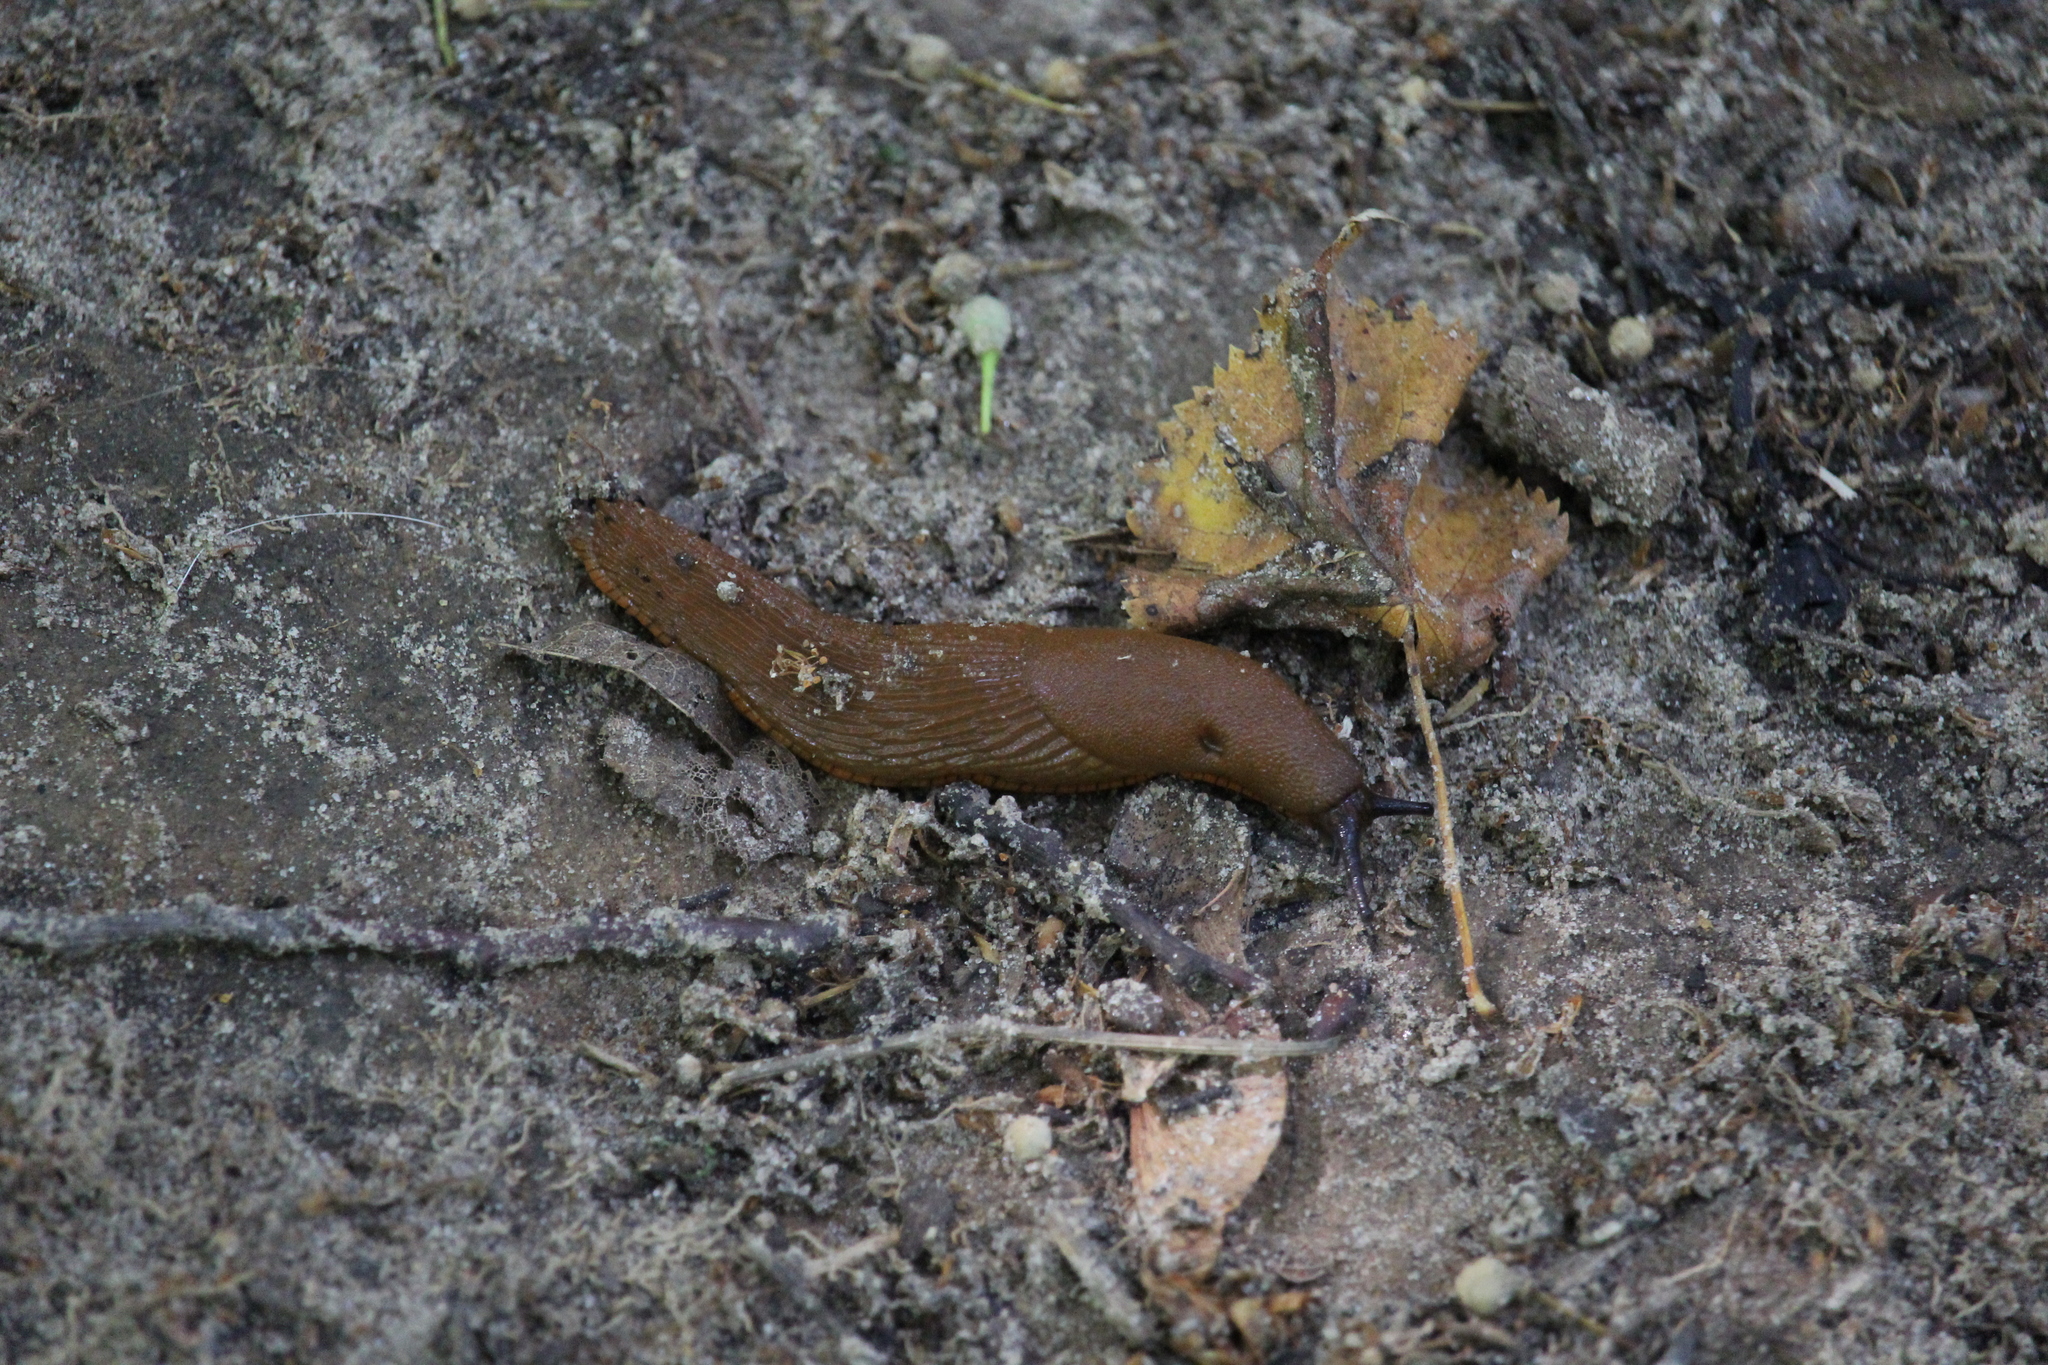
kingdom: Animalia
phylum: Mollusca
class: Gastropoda
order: Stylommatophora
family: Arionidae
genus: Arion
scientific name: Arion
